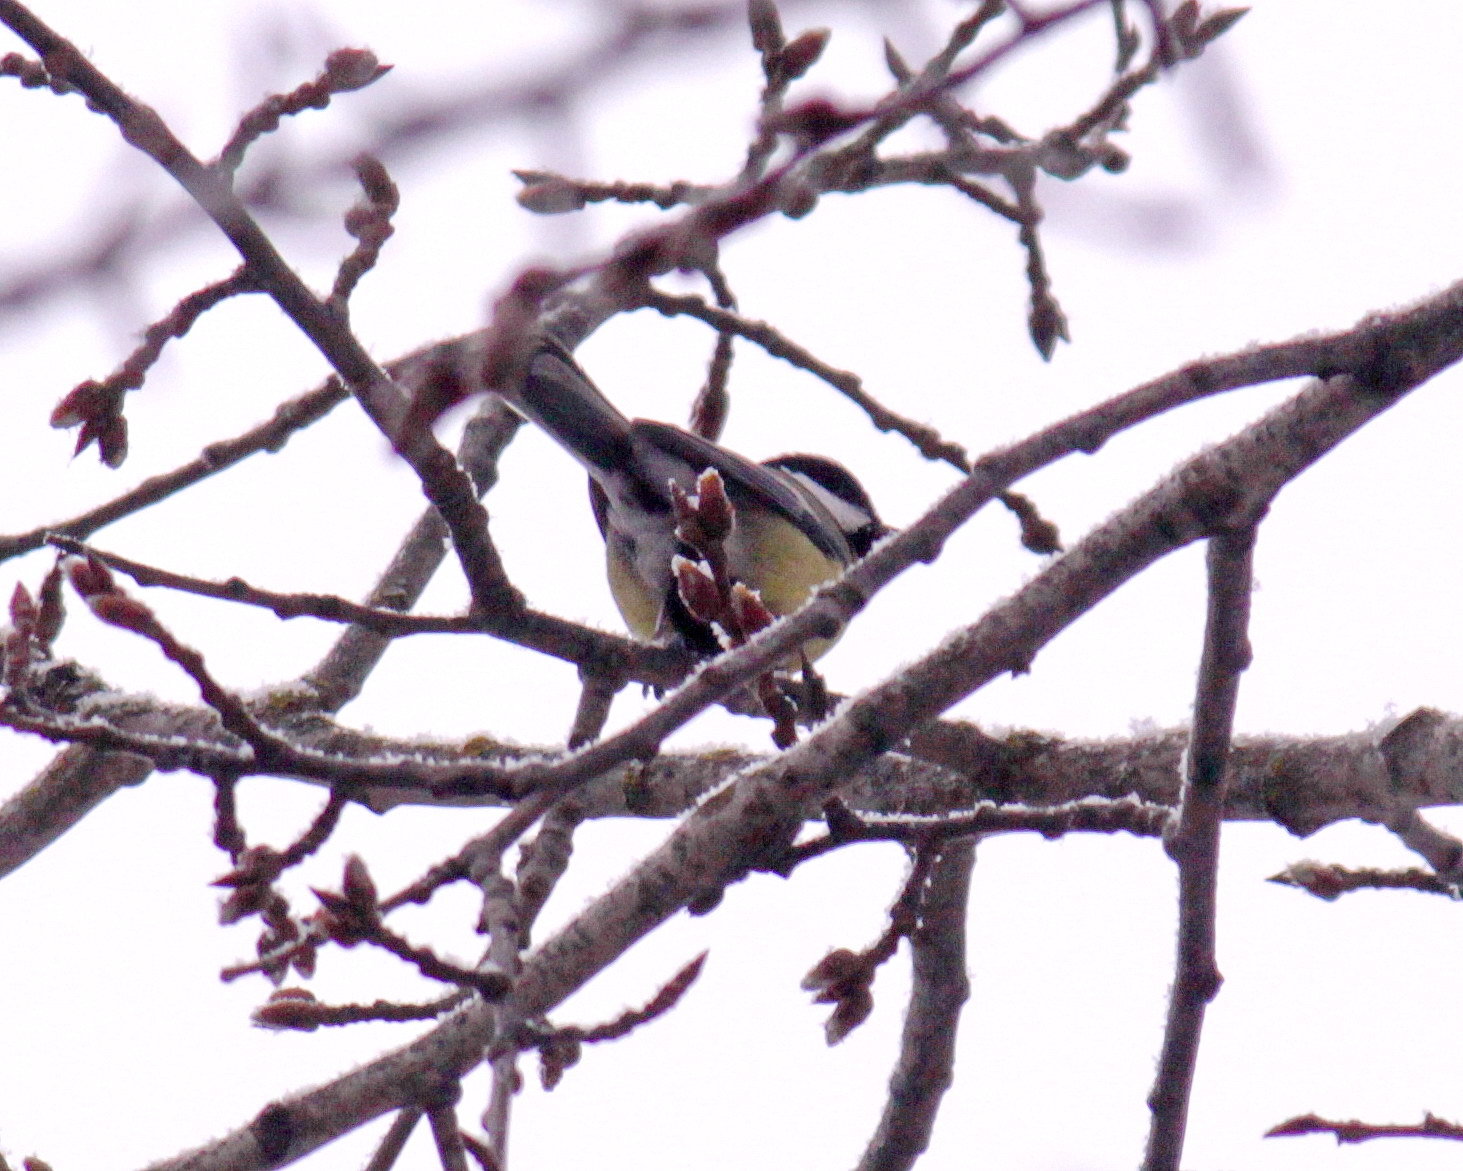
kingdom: Animalia
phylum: Chordata
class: Aves
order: Passeriformes
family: Paridae
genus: Parus
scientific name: Parus major
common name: Great tit
